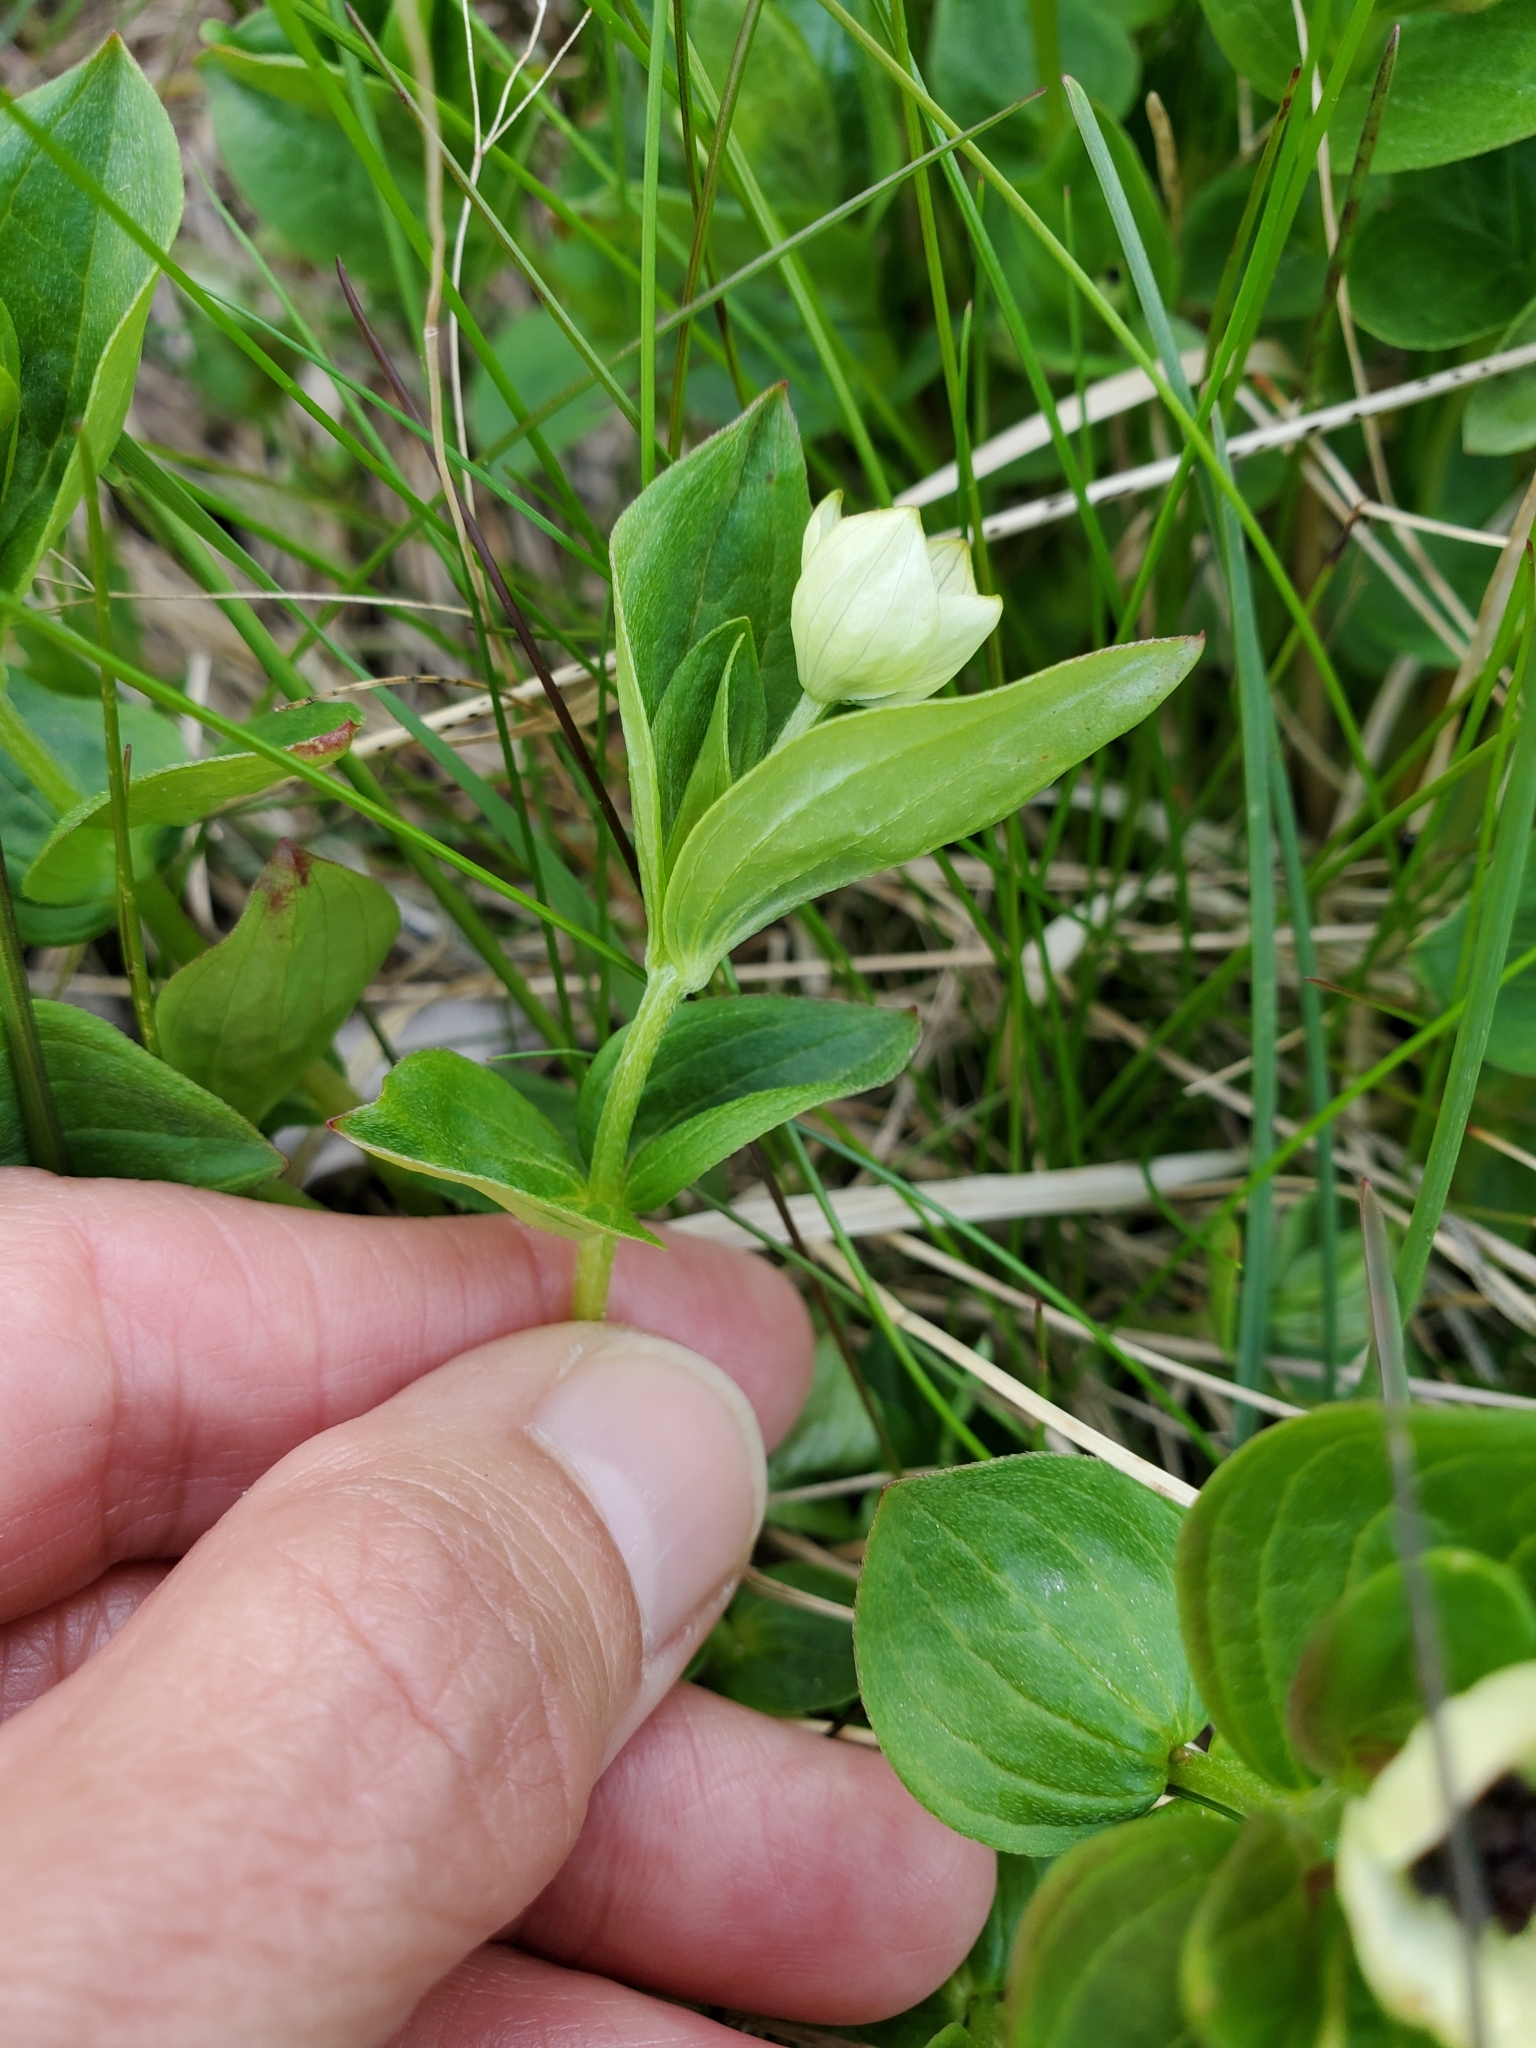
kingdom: Plantae
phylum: Tracheophyta
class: Magnoliopsida
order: Cornales
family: Cornaceae
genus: Cornus
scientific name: Cornus suecica
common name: Dwarf cornel
